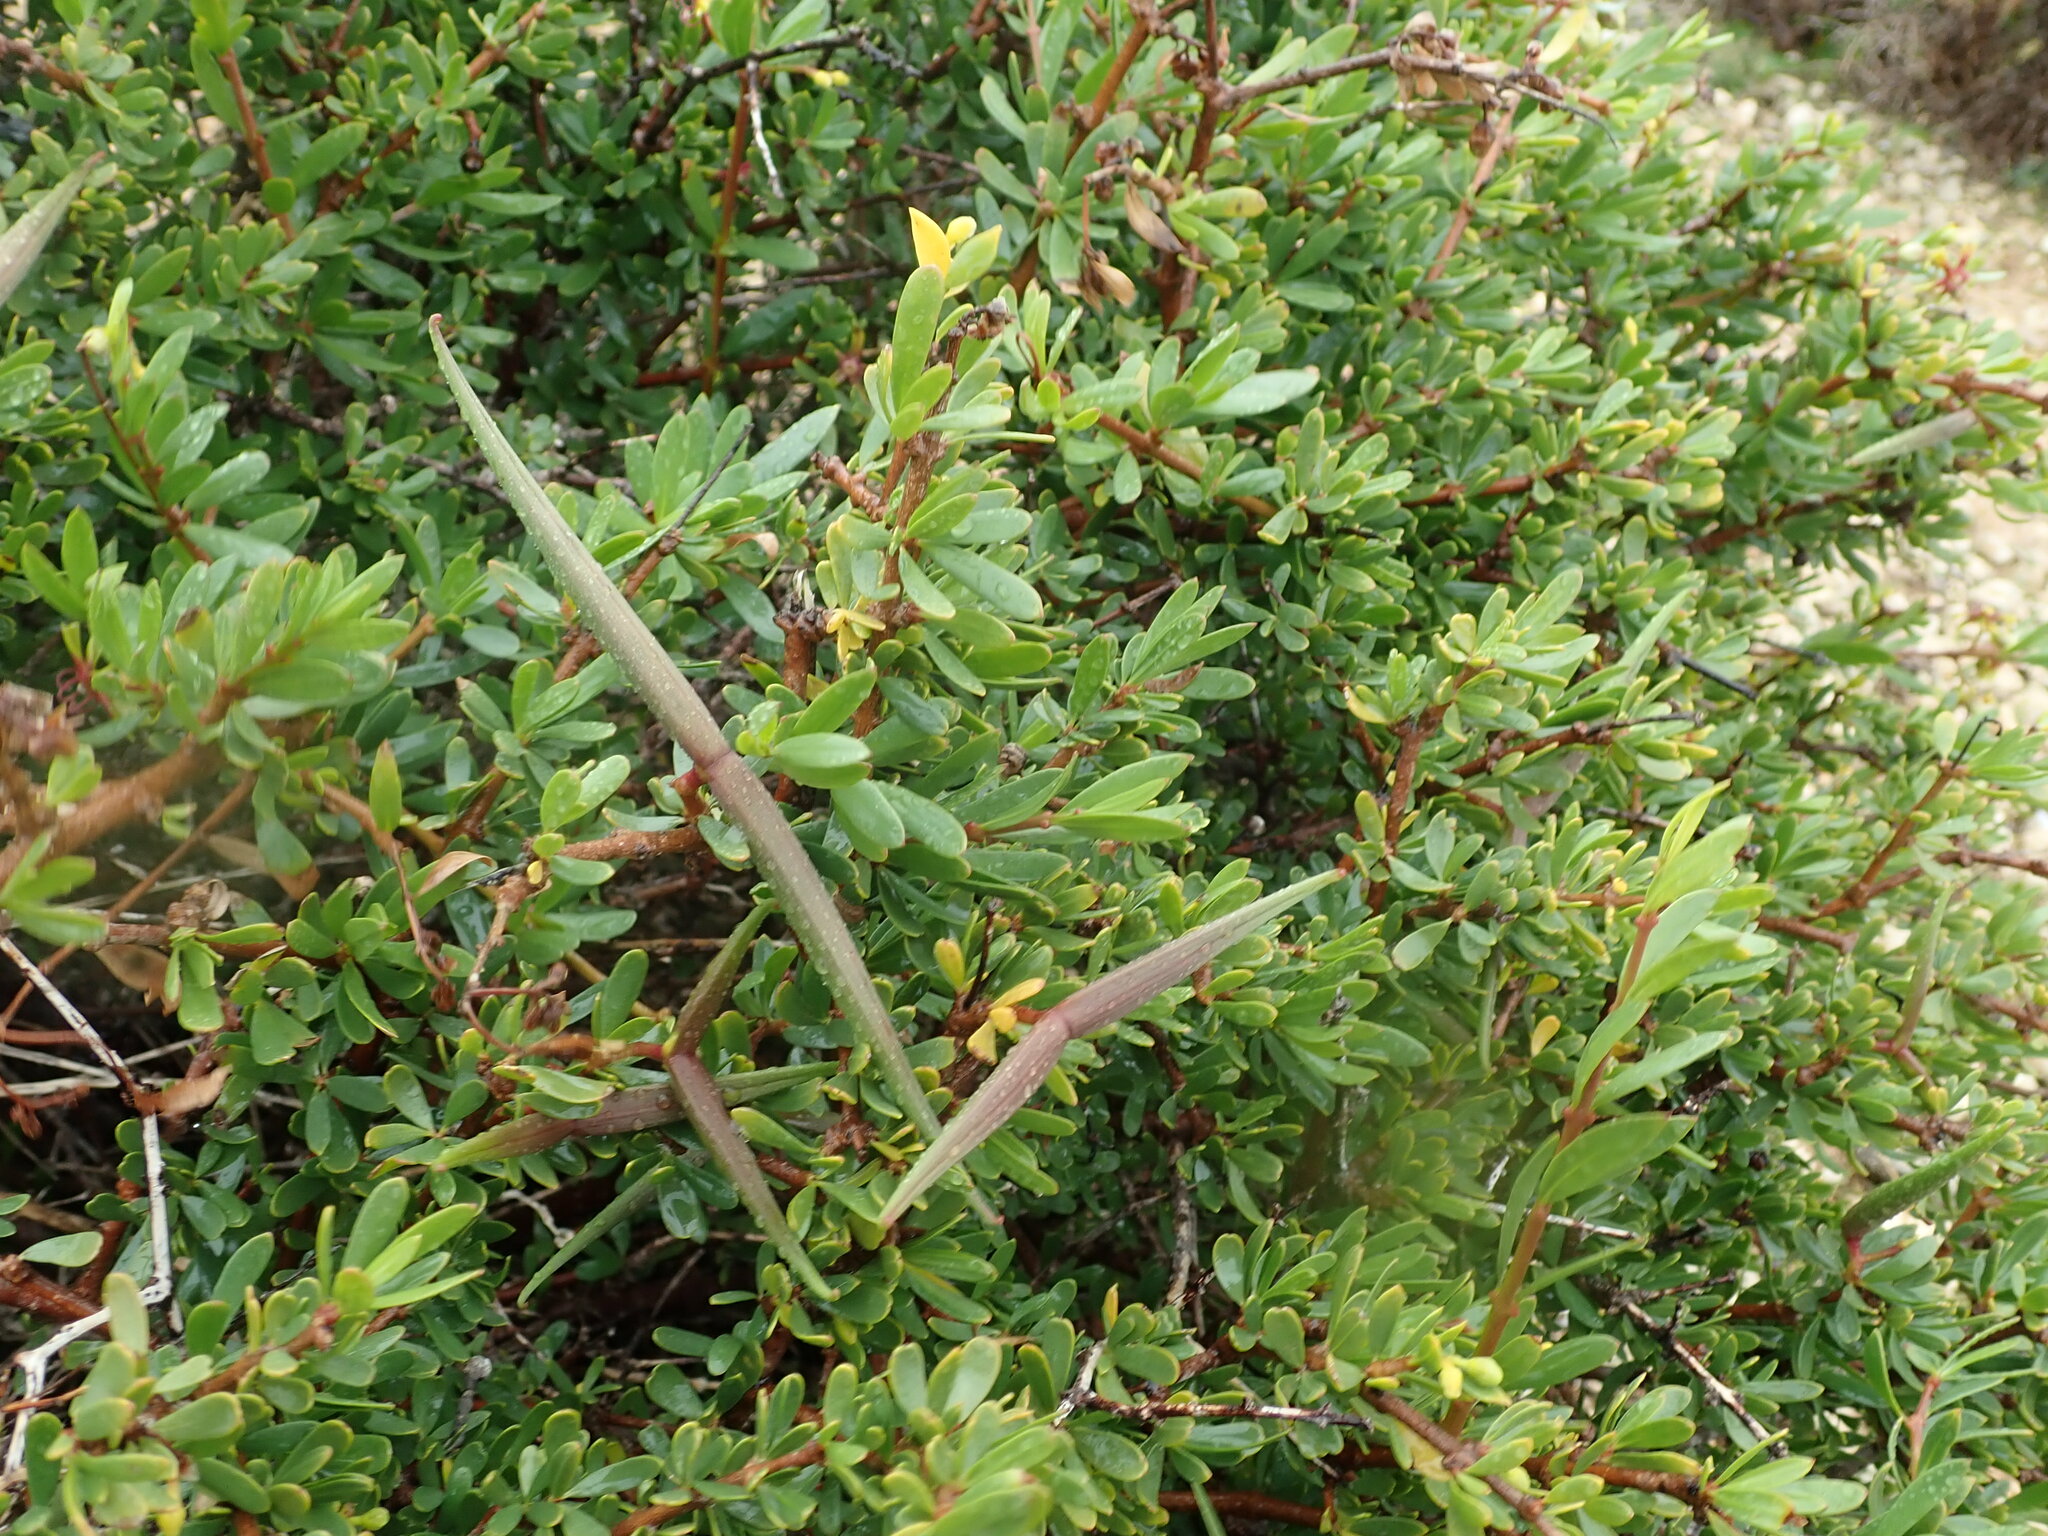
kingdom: Plantae
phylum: Tracheophyta
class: Magnoliopsida
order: Gentianales
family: Apocynaceae
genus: Periploca
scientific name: Periploca laevigata
